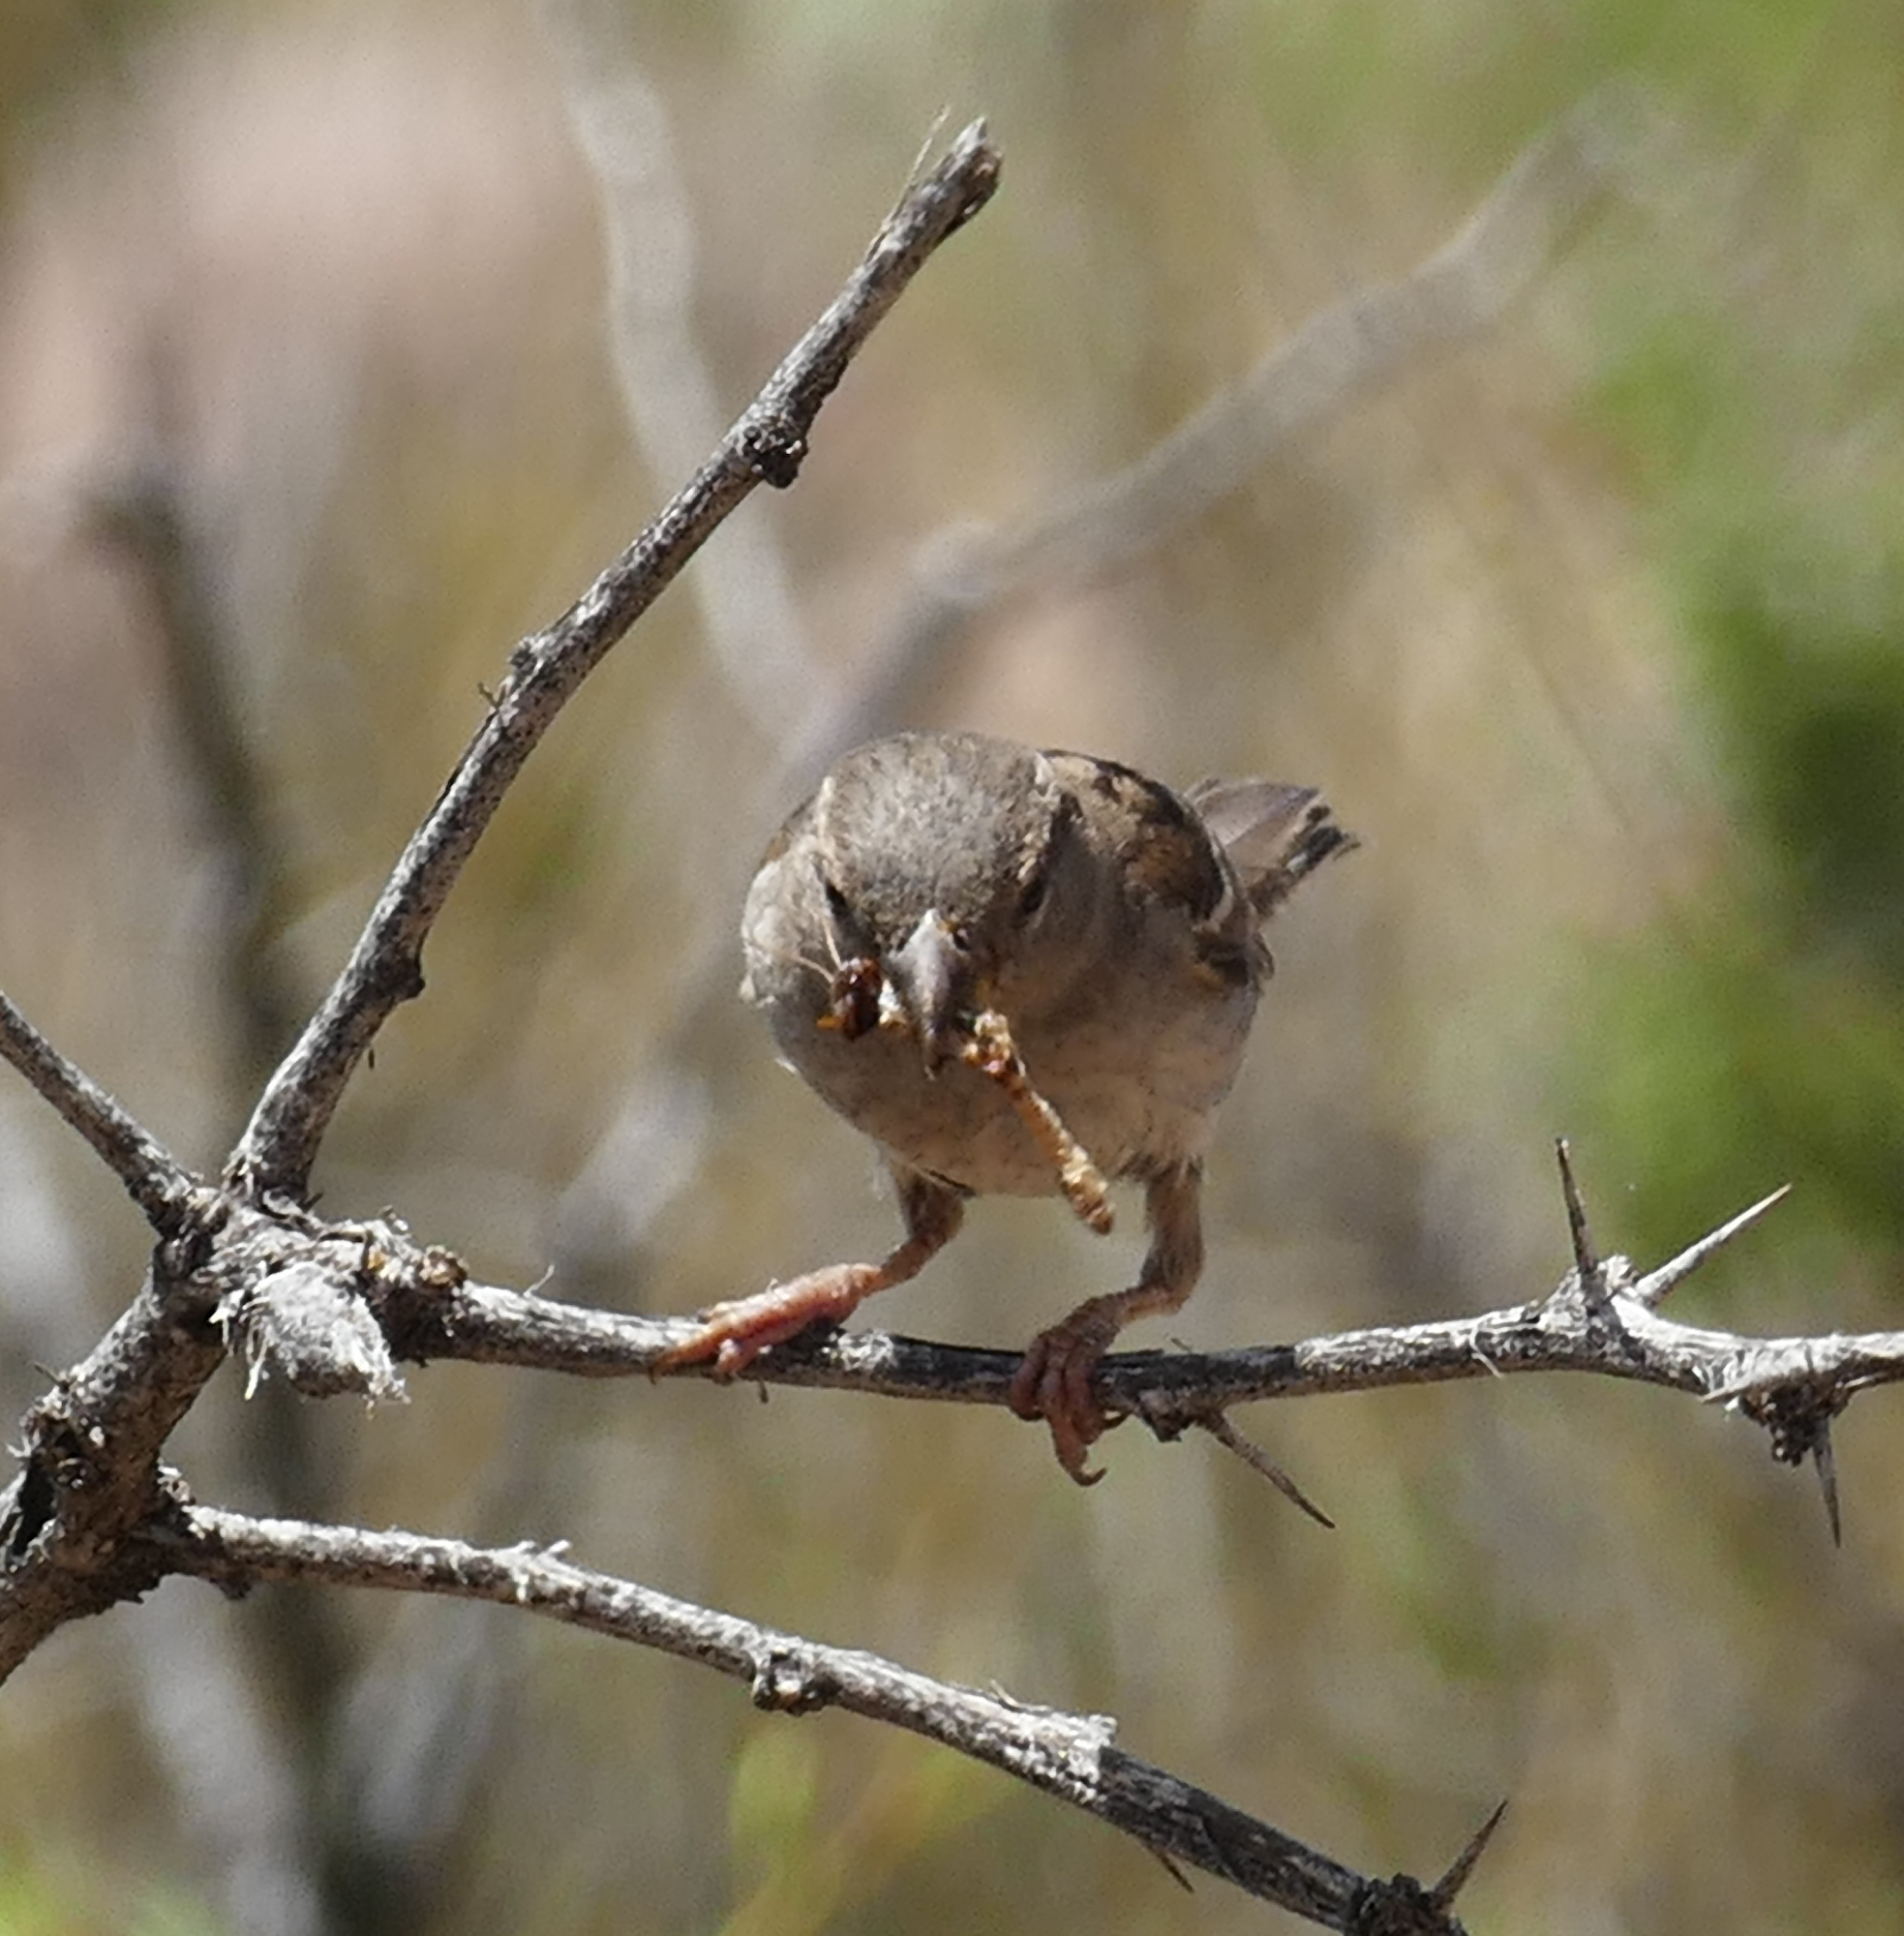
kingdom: Animalia
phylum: Chordata
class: Aves
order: Passeriformes
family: Passeridae
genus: Passer
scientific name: Passer domesticus
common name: House sparrow
